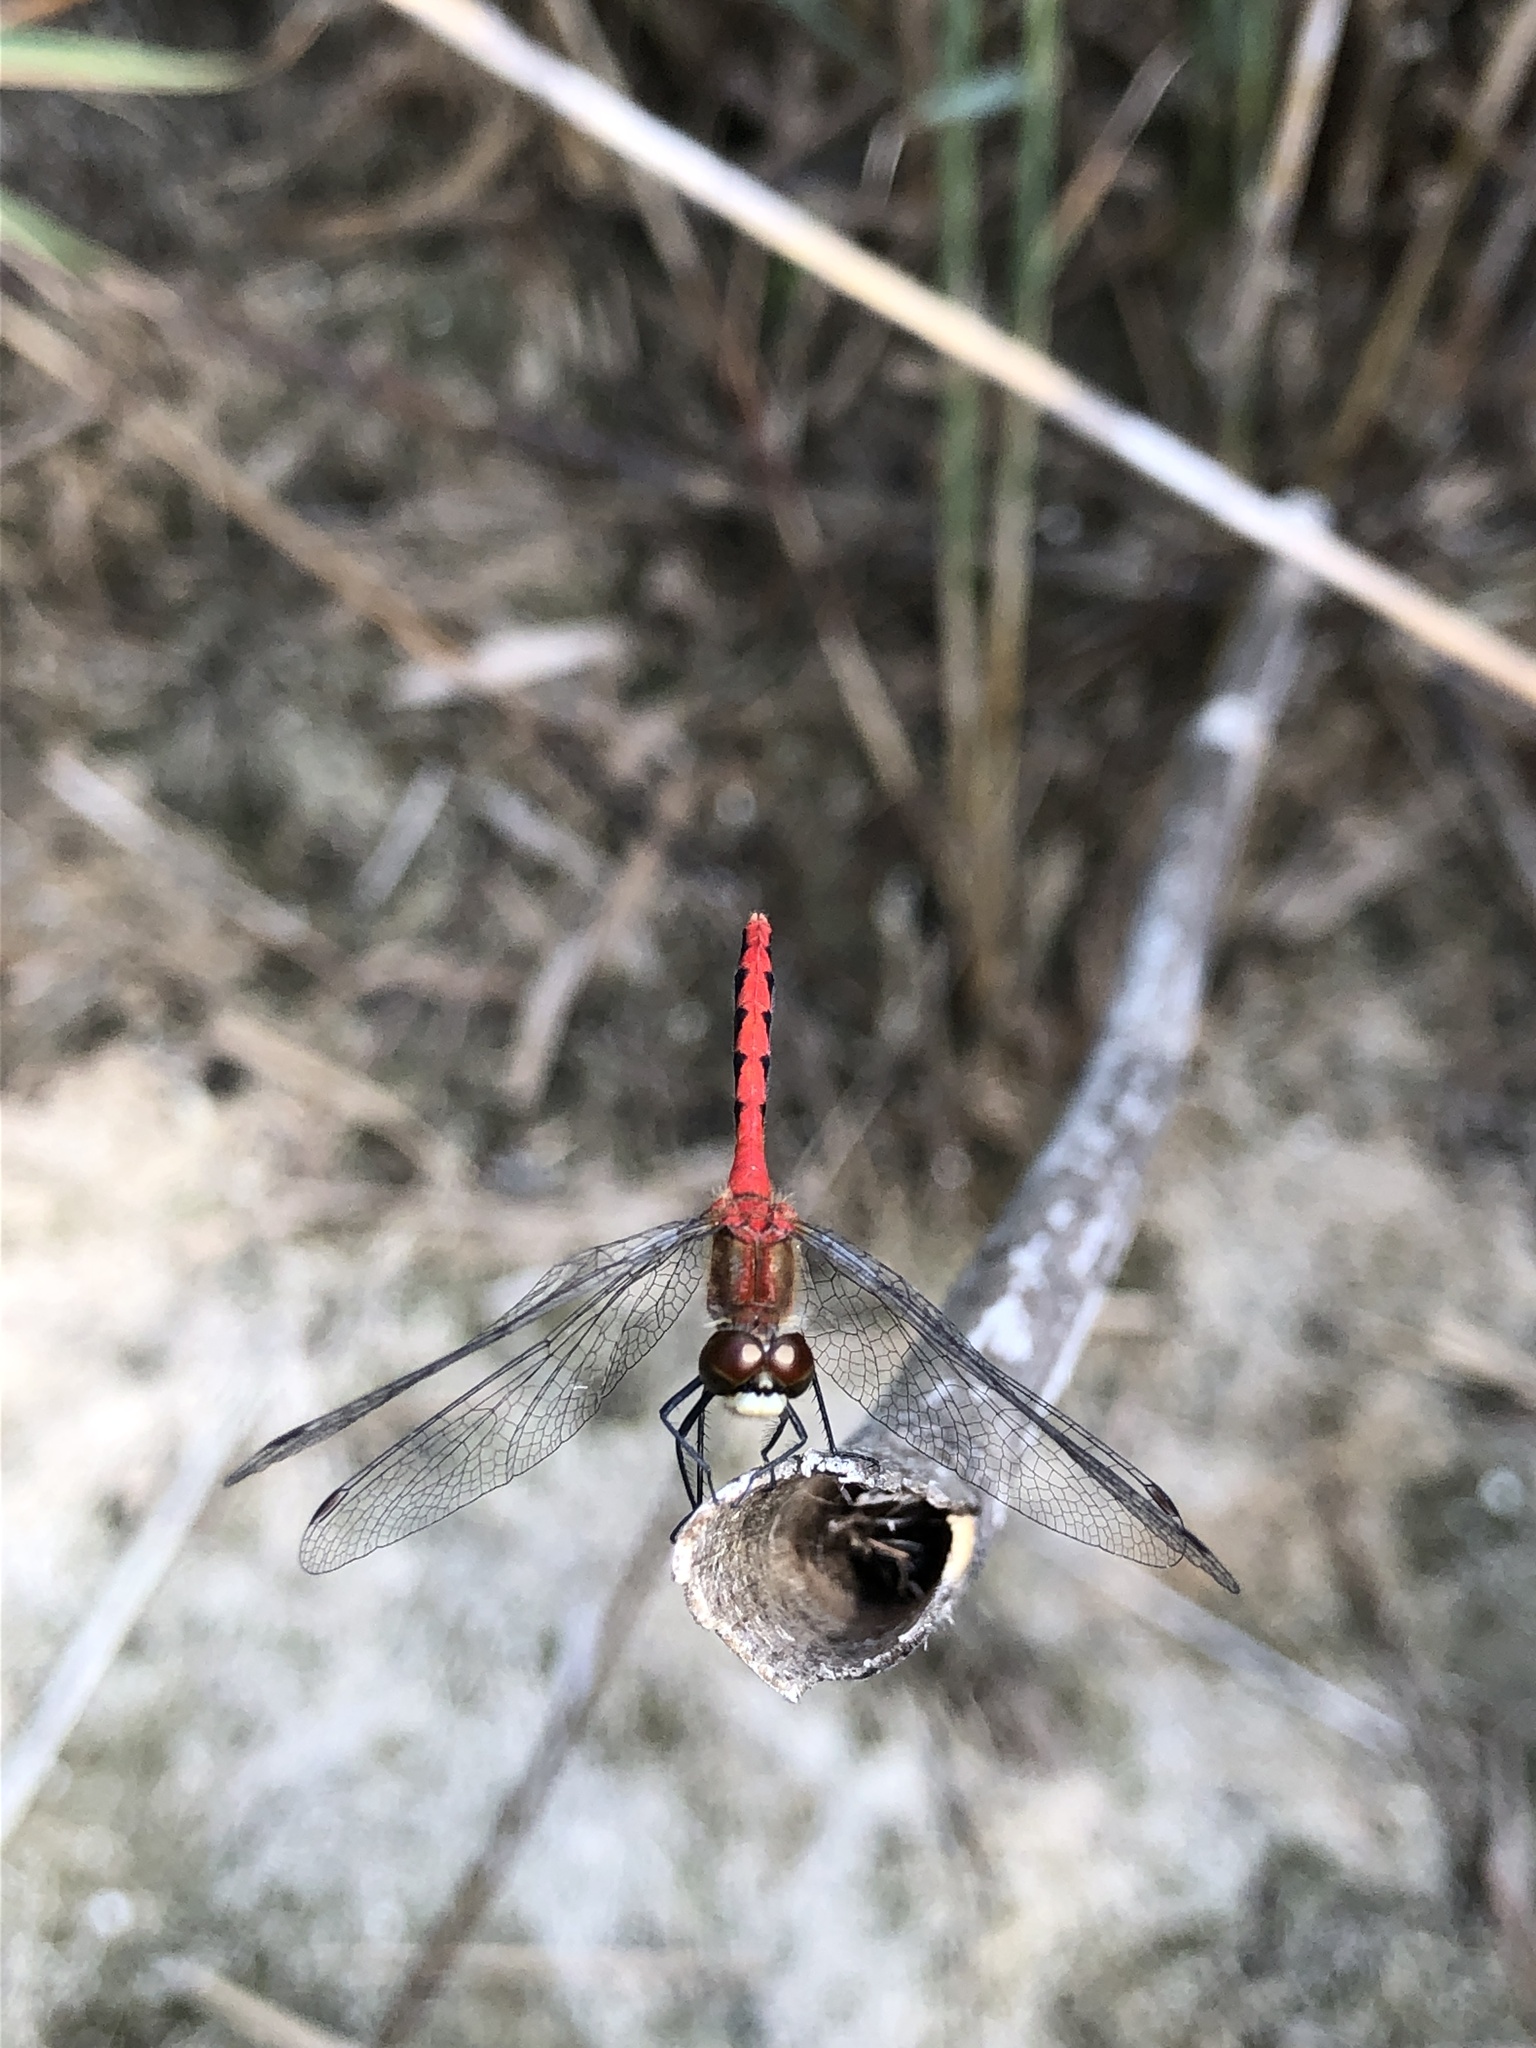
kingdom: Animalia
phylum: Arthropoda
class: Insecta
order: Odonata
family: Libellulidae
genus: Sympetrum
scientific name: Sympetrum obtrusum
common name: White-faced meadowhawk
